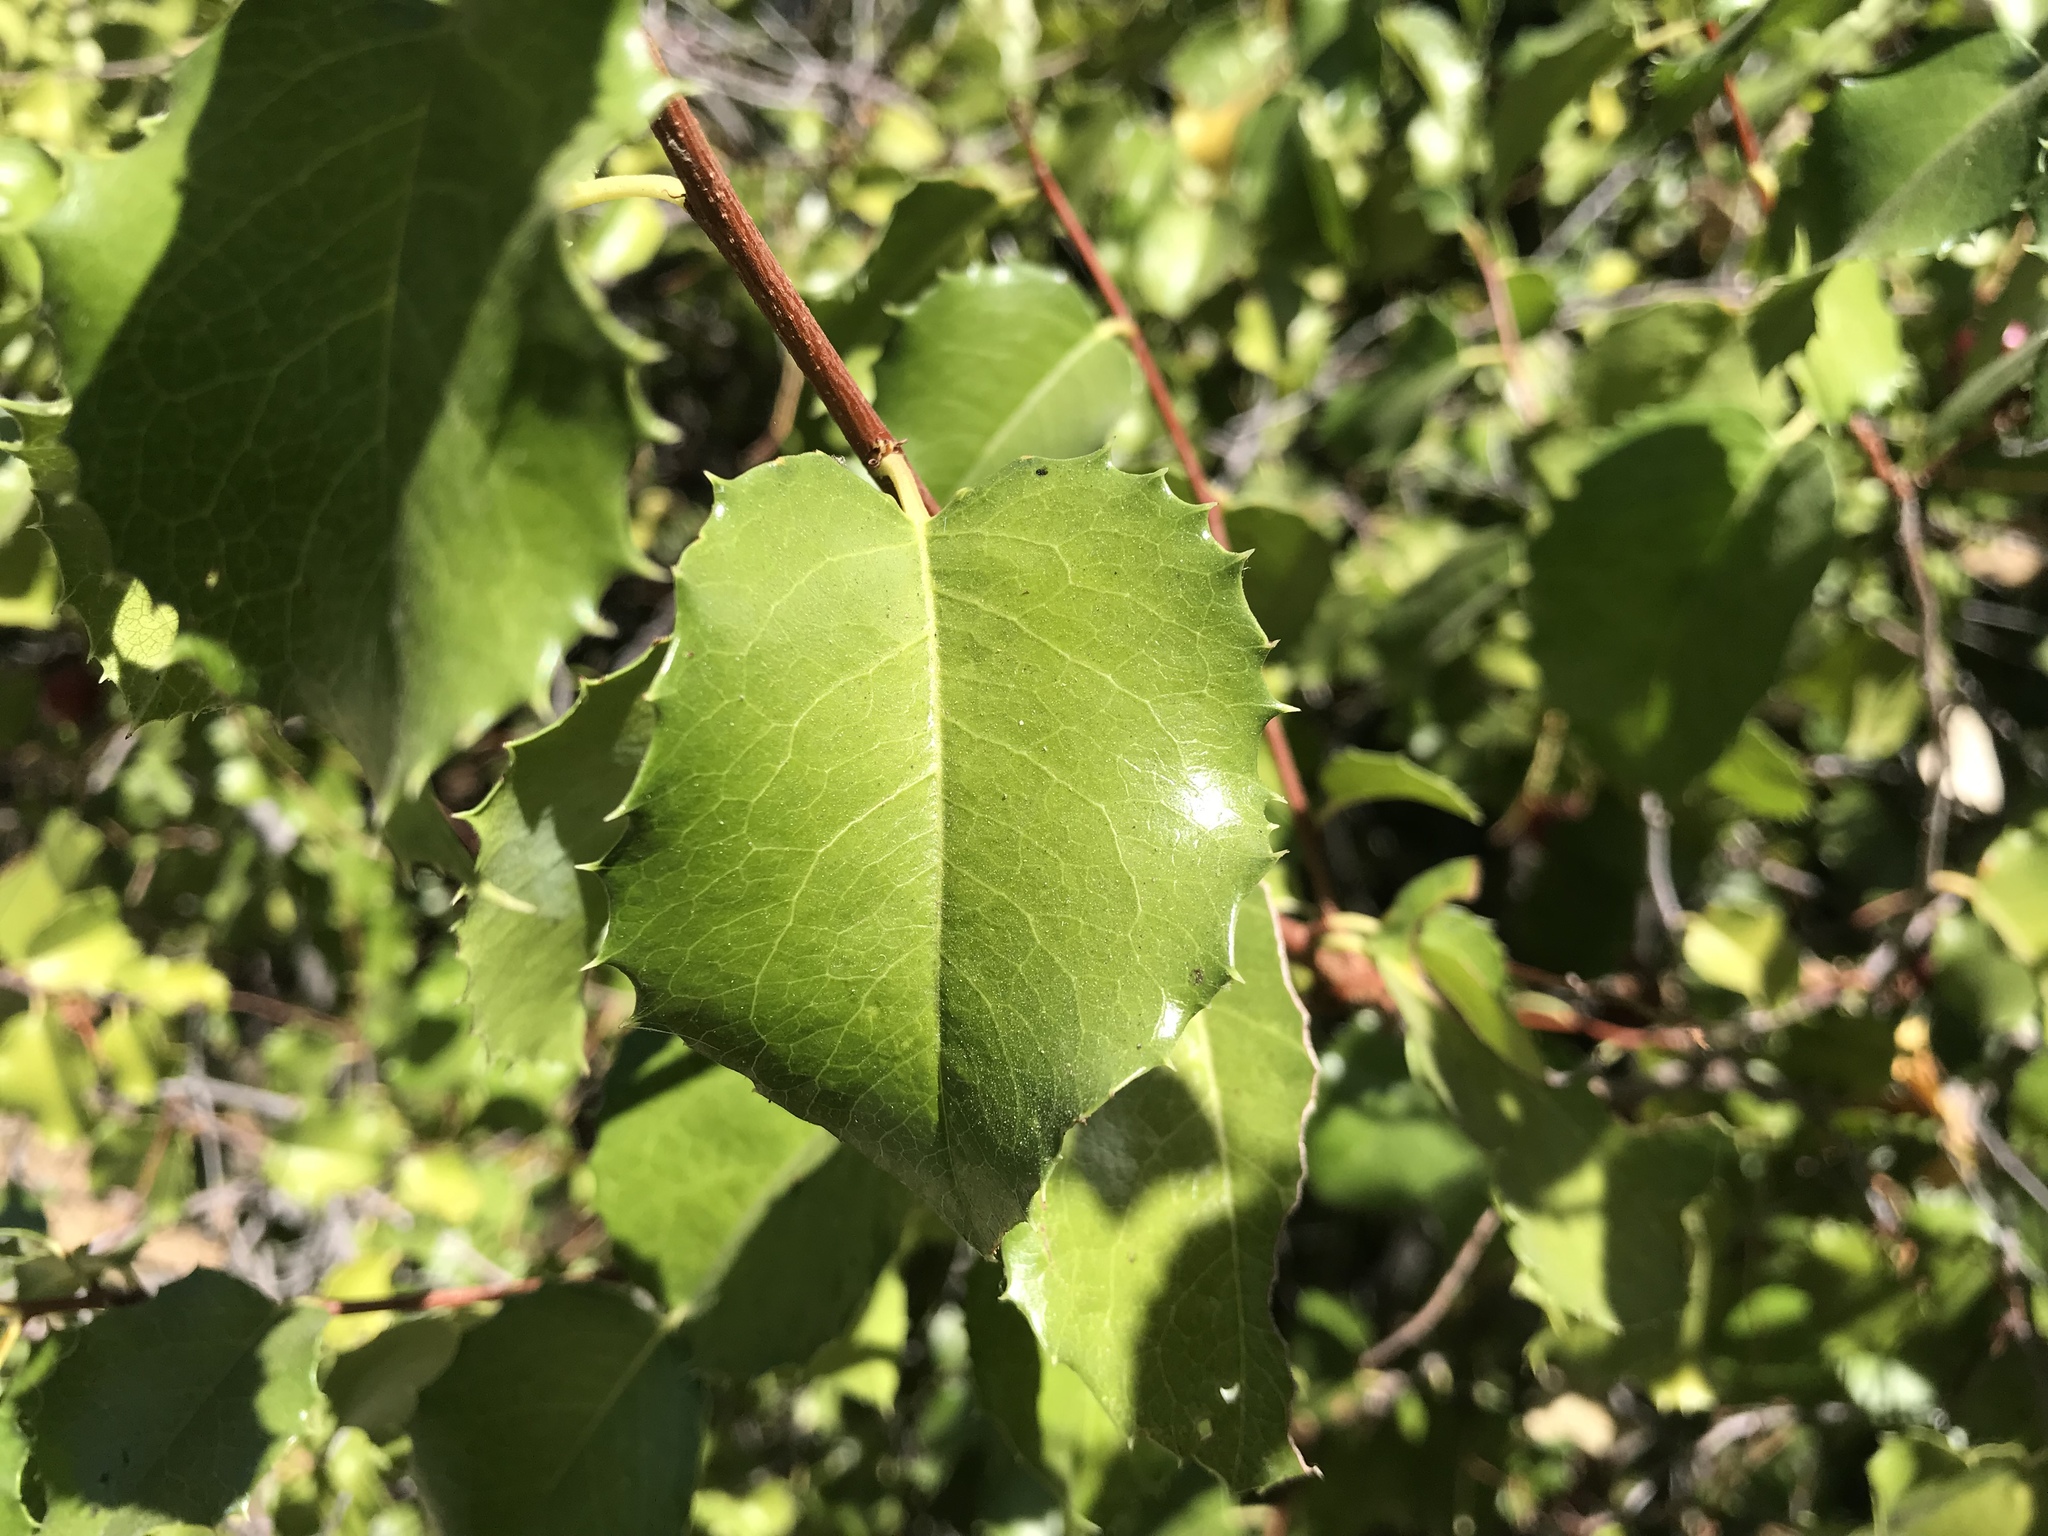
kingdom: Plantae
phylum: Tracheophyta
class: Magnoliopsida
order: Rosales
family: Rosaceae
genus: Prunus
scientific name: Prunus ilicifolia
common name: Hollyleaf cherry
